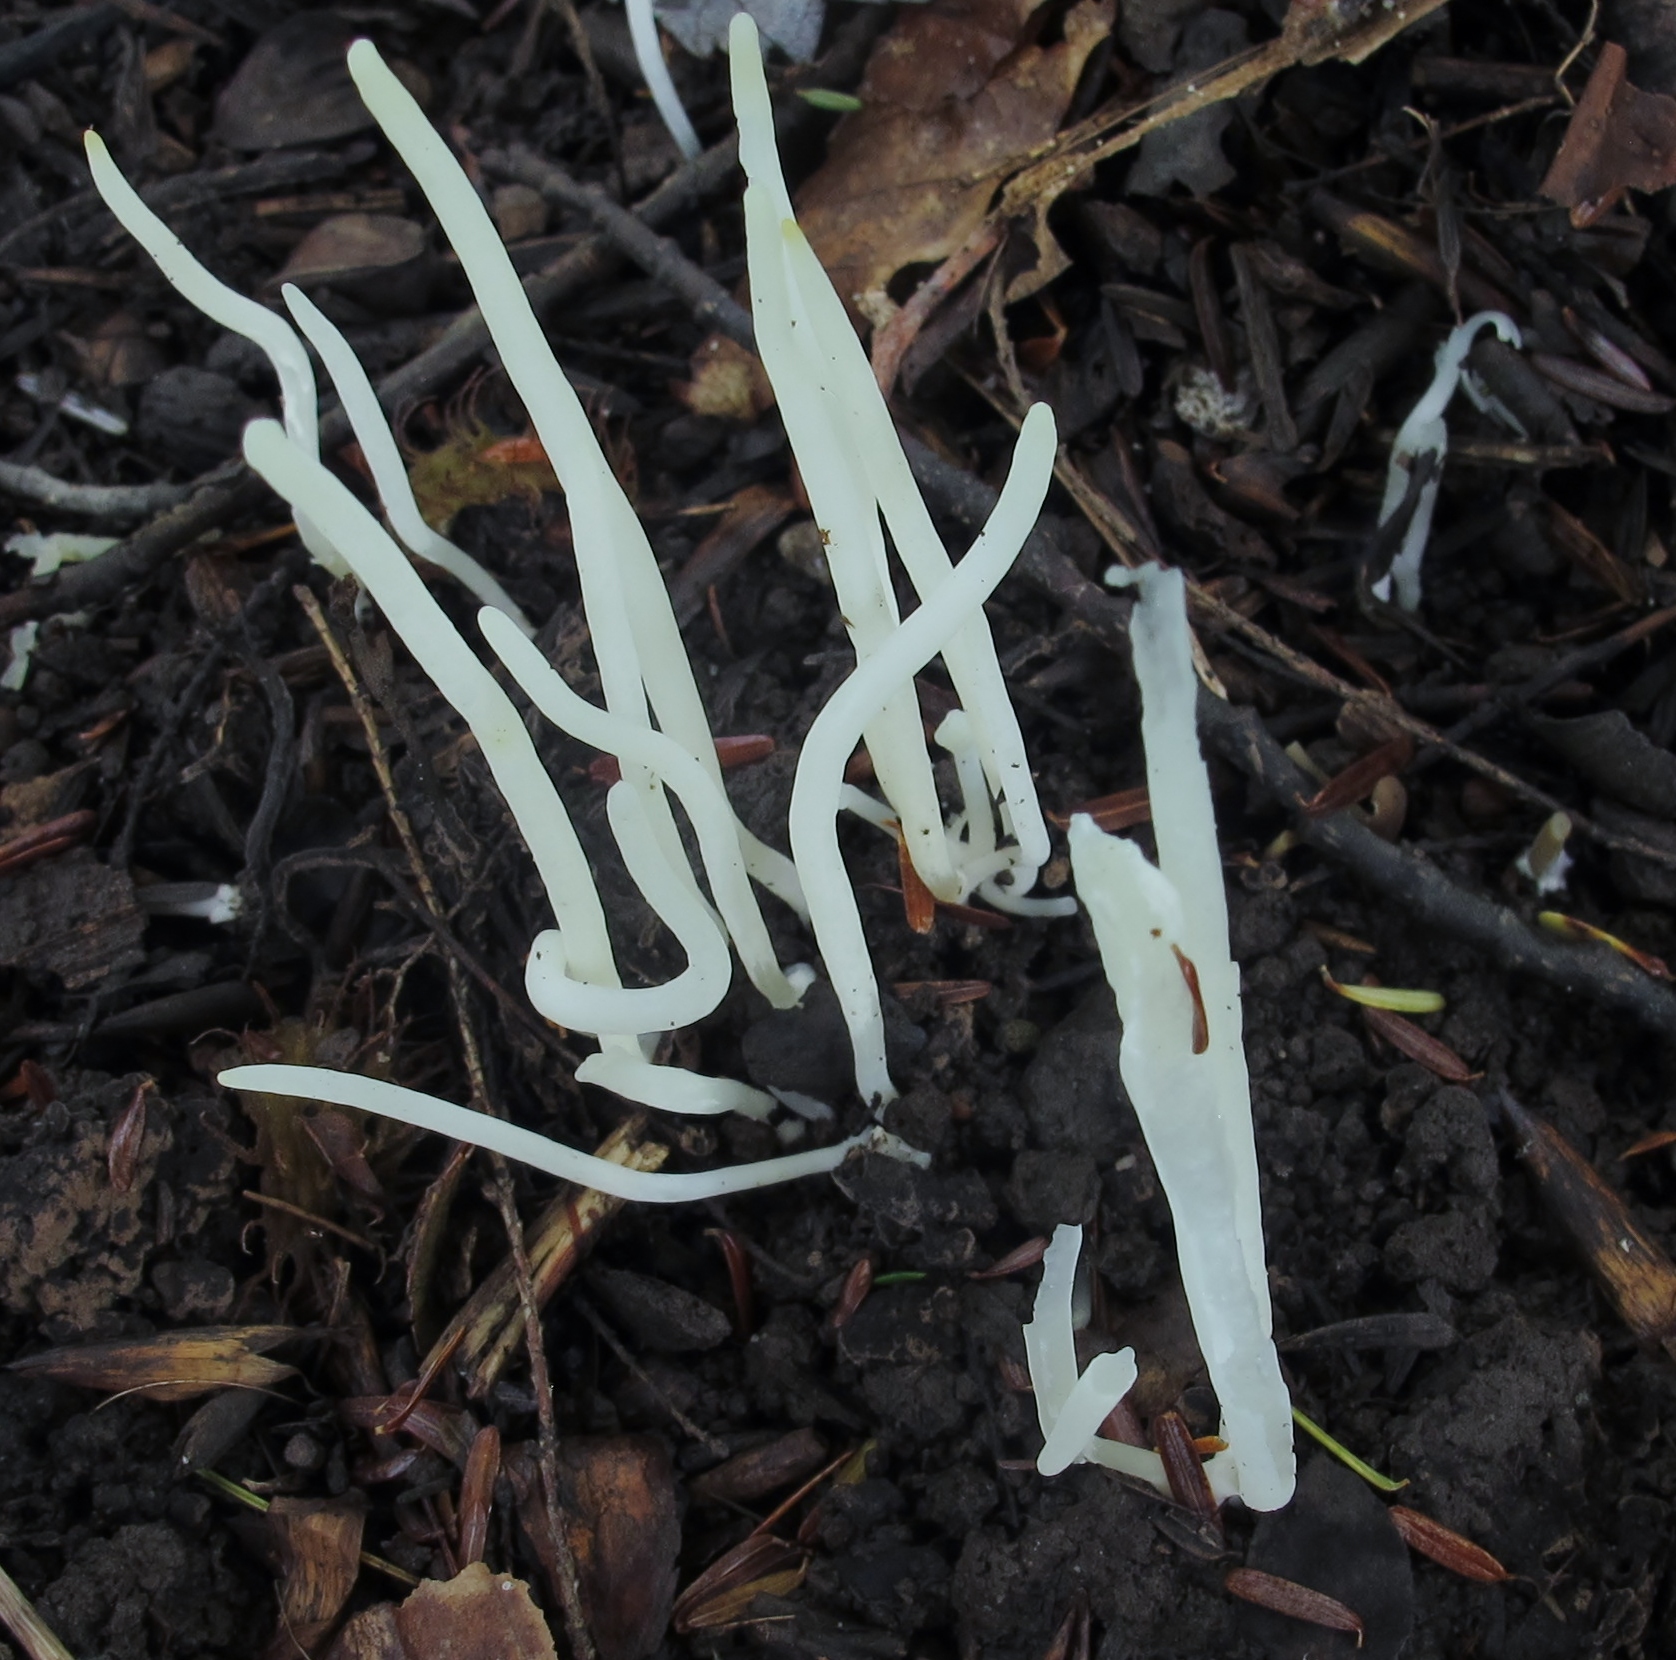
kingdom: Fungi
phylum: Basidiomycota
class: Agaricomycetes
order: Agaricales
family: Clavariaceae
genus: Clavaria
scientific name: Clavaria fragilis
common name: White spindles
